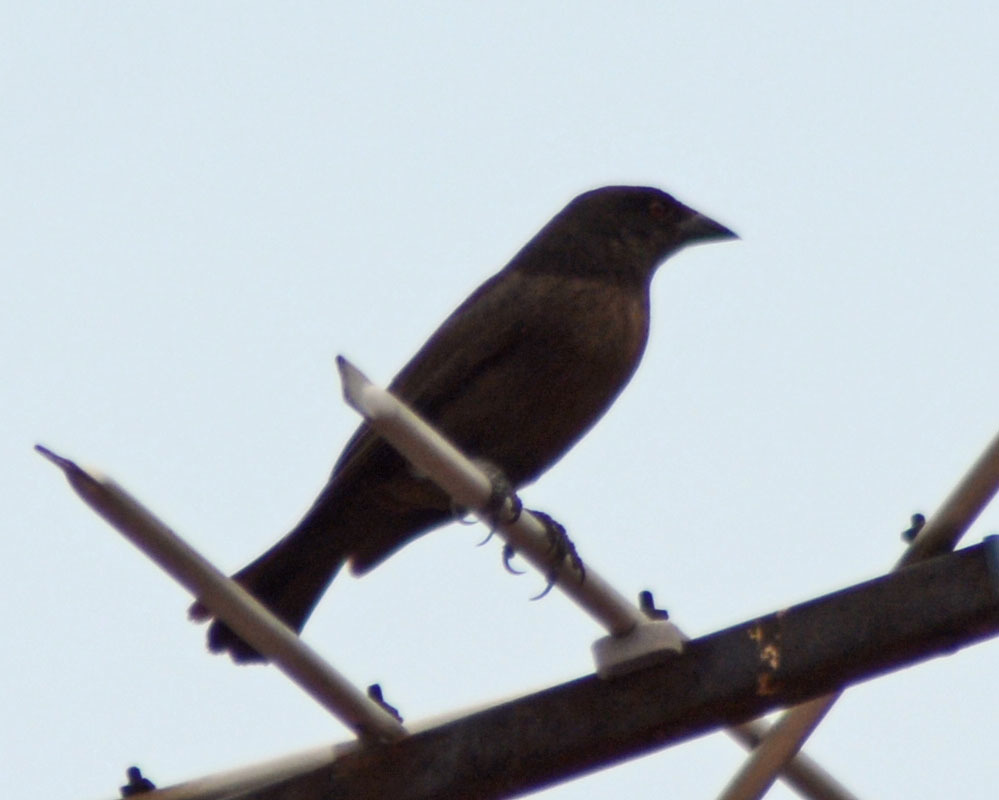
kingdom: Animalia
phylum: Chordata
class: Aves
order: Passeriformes
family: Icteridae
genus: Molothrus
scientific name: Molothrus aeneus
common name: Bronzed cowbird
